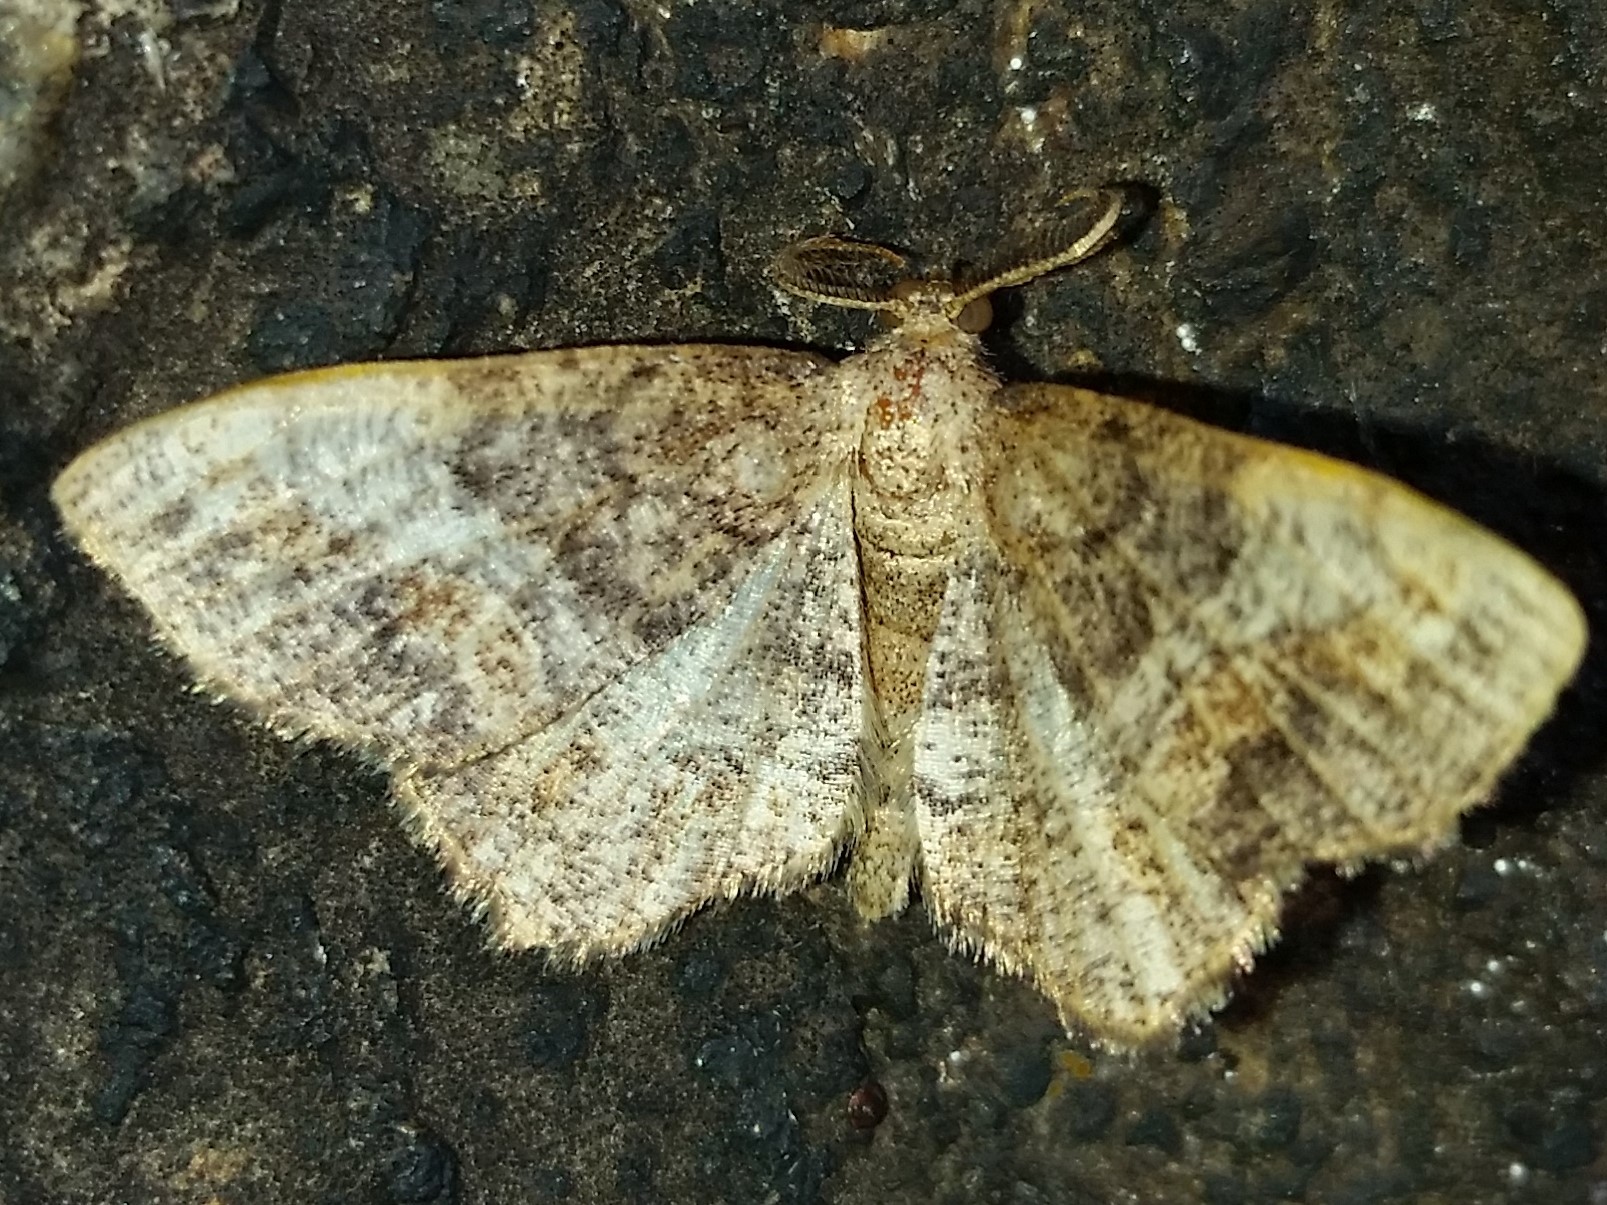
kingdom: Animalia
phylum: Arthropoda
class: Insecta
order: Lepidoptera
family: Geometridae
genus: Hypagyrtis
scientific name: Hypagyrtis unipunctata
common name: One-spotted variant
